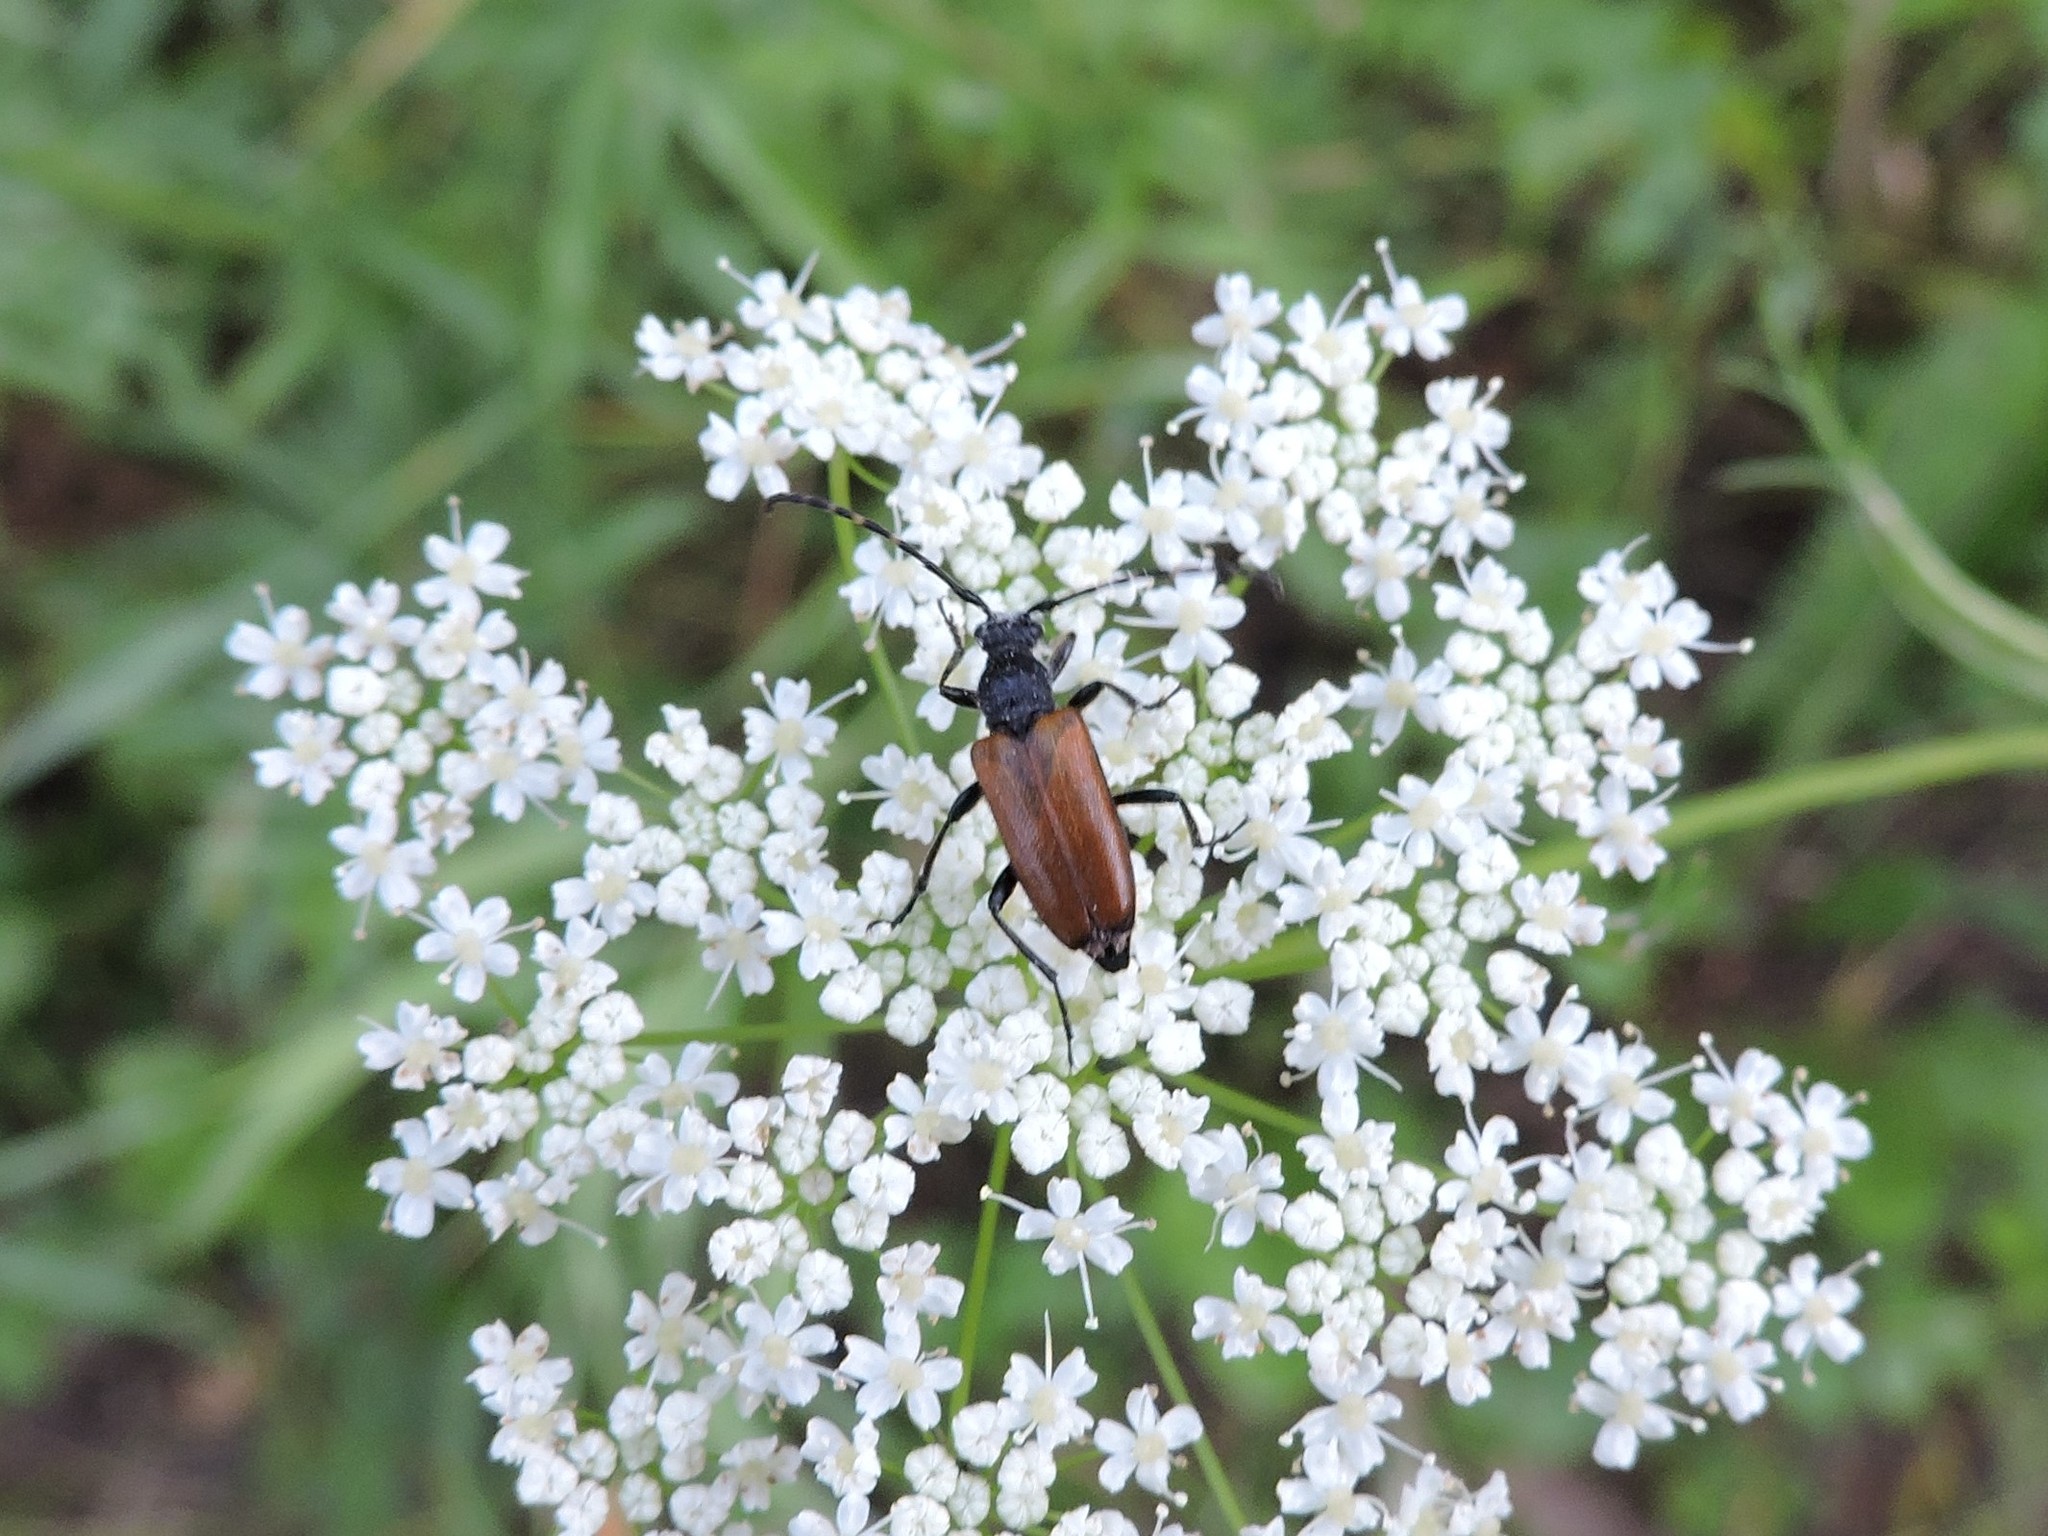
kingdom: Animalia
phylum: Arthropoda
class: Insecta
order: Coleoptera
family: Cerambycidae
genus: Paracorymbia
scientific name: Paracorymbia maculicornis
